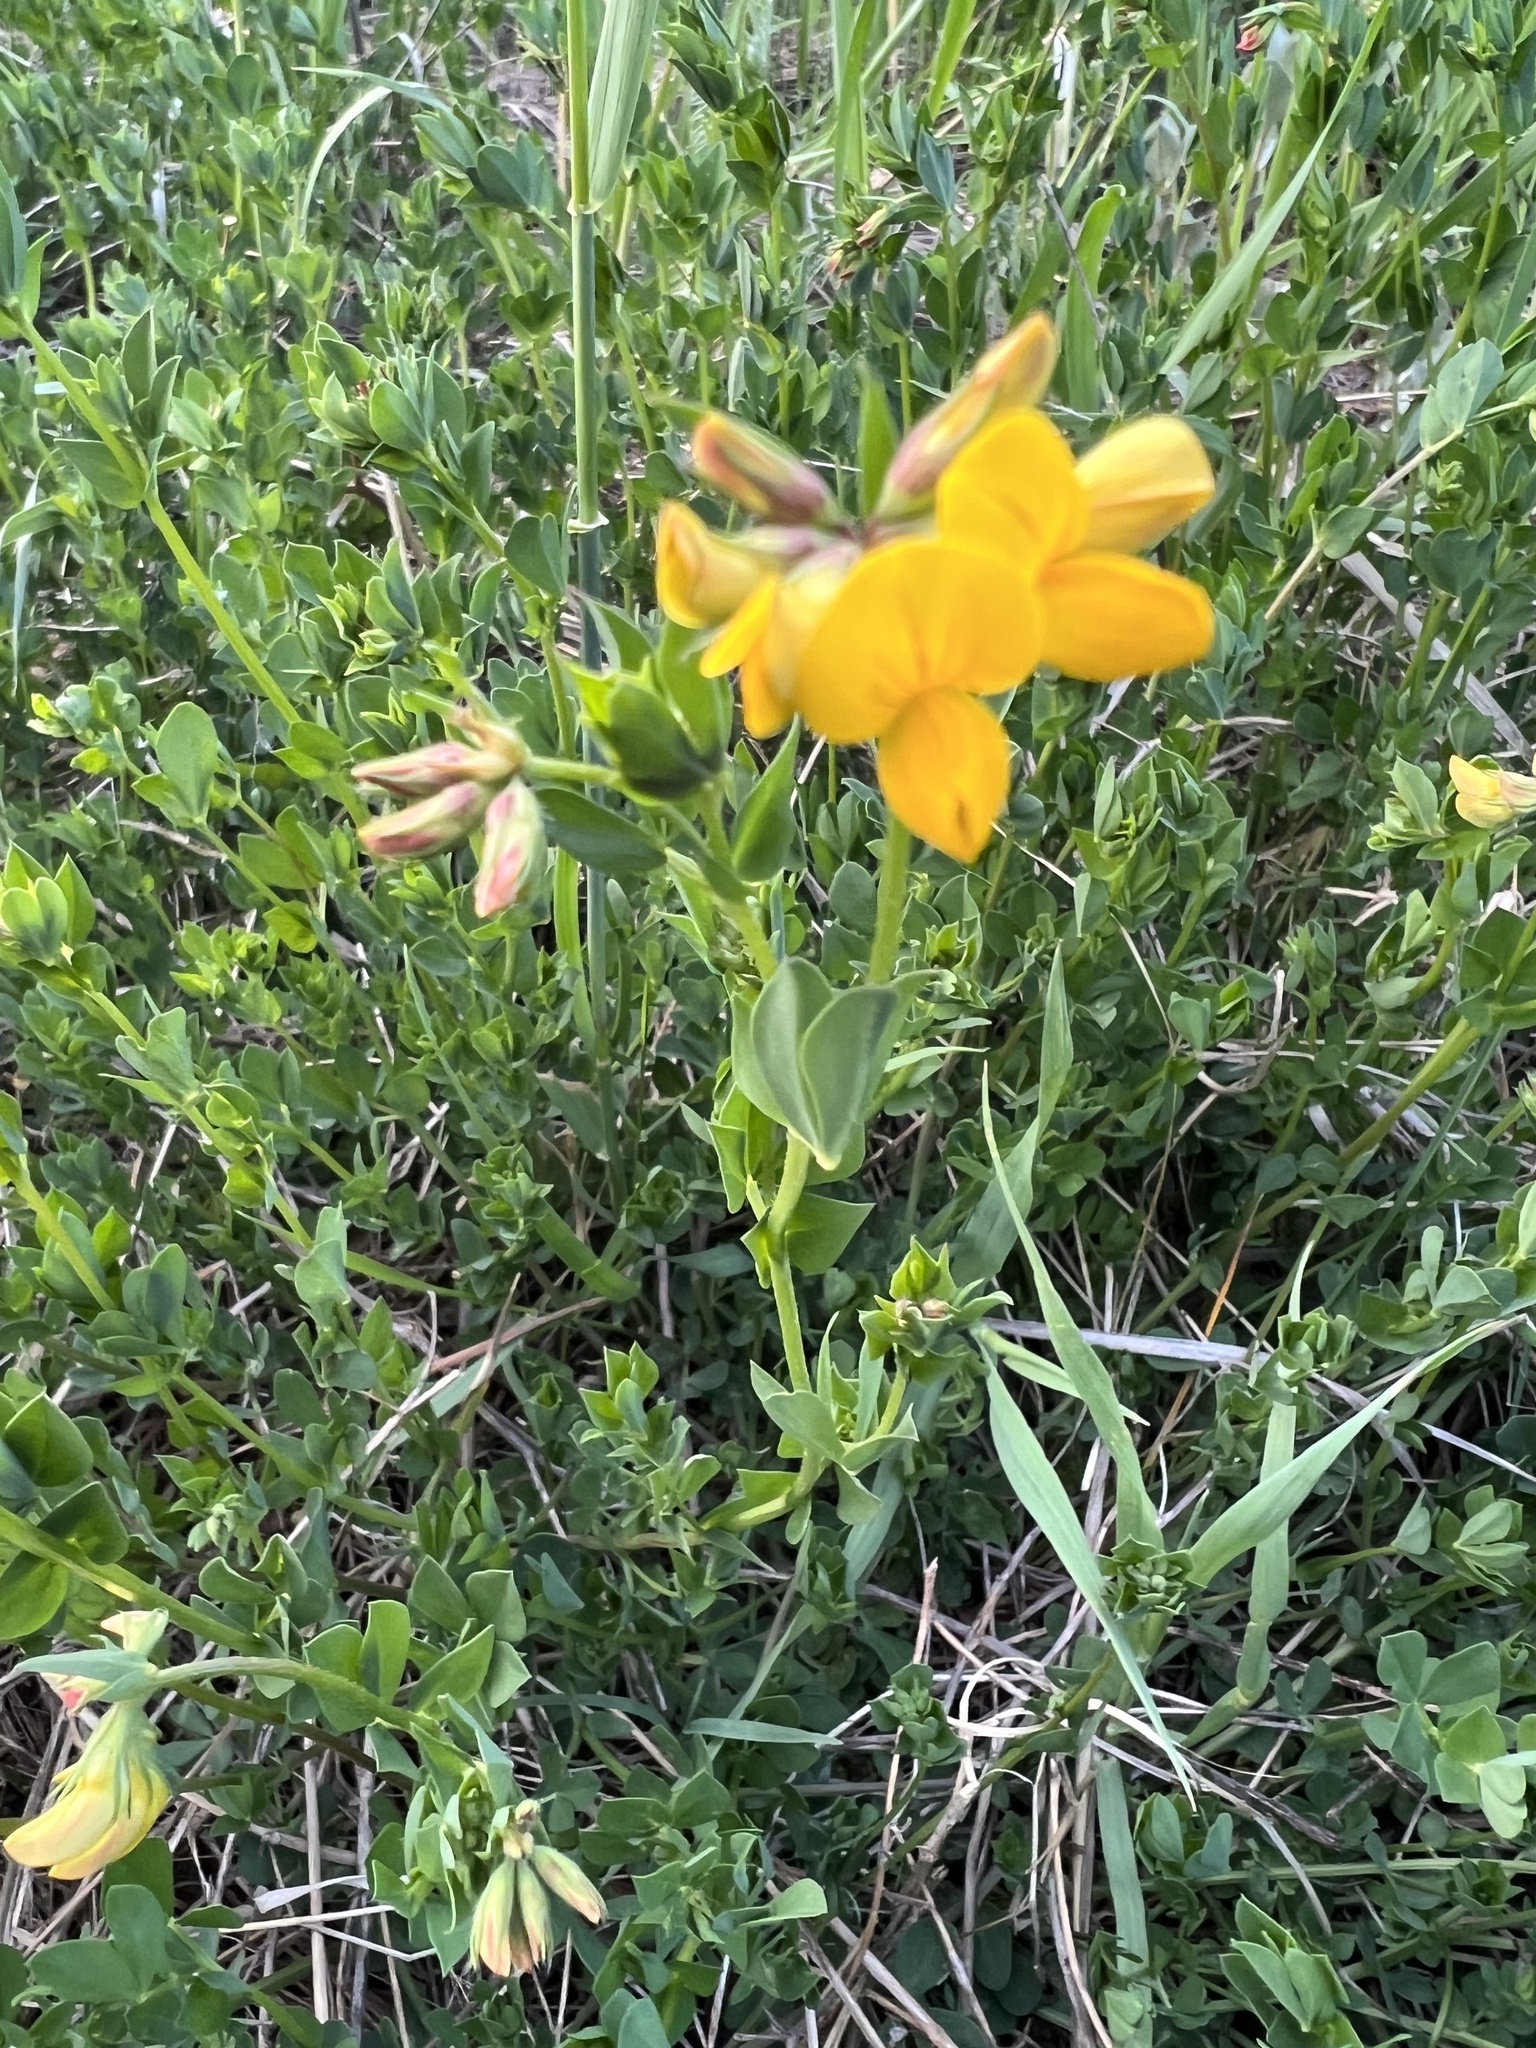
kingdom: Plantae
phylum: Tracheophyta
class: Magnoliopsida
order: Fabales
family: Fabaceae
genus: Lotus
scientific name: Lotus corniculatus
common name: Common bird's-foot-trefoil
